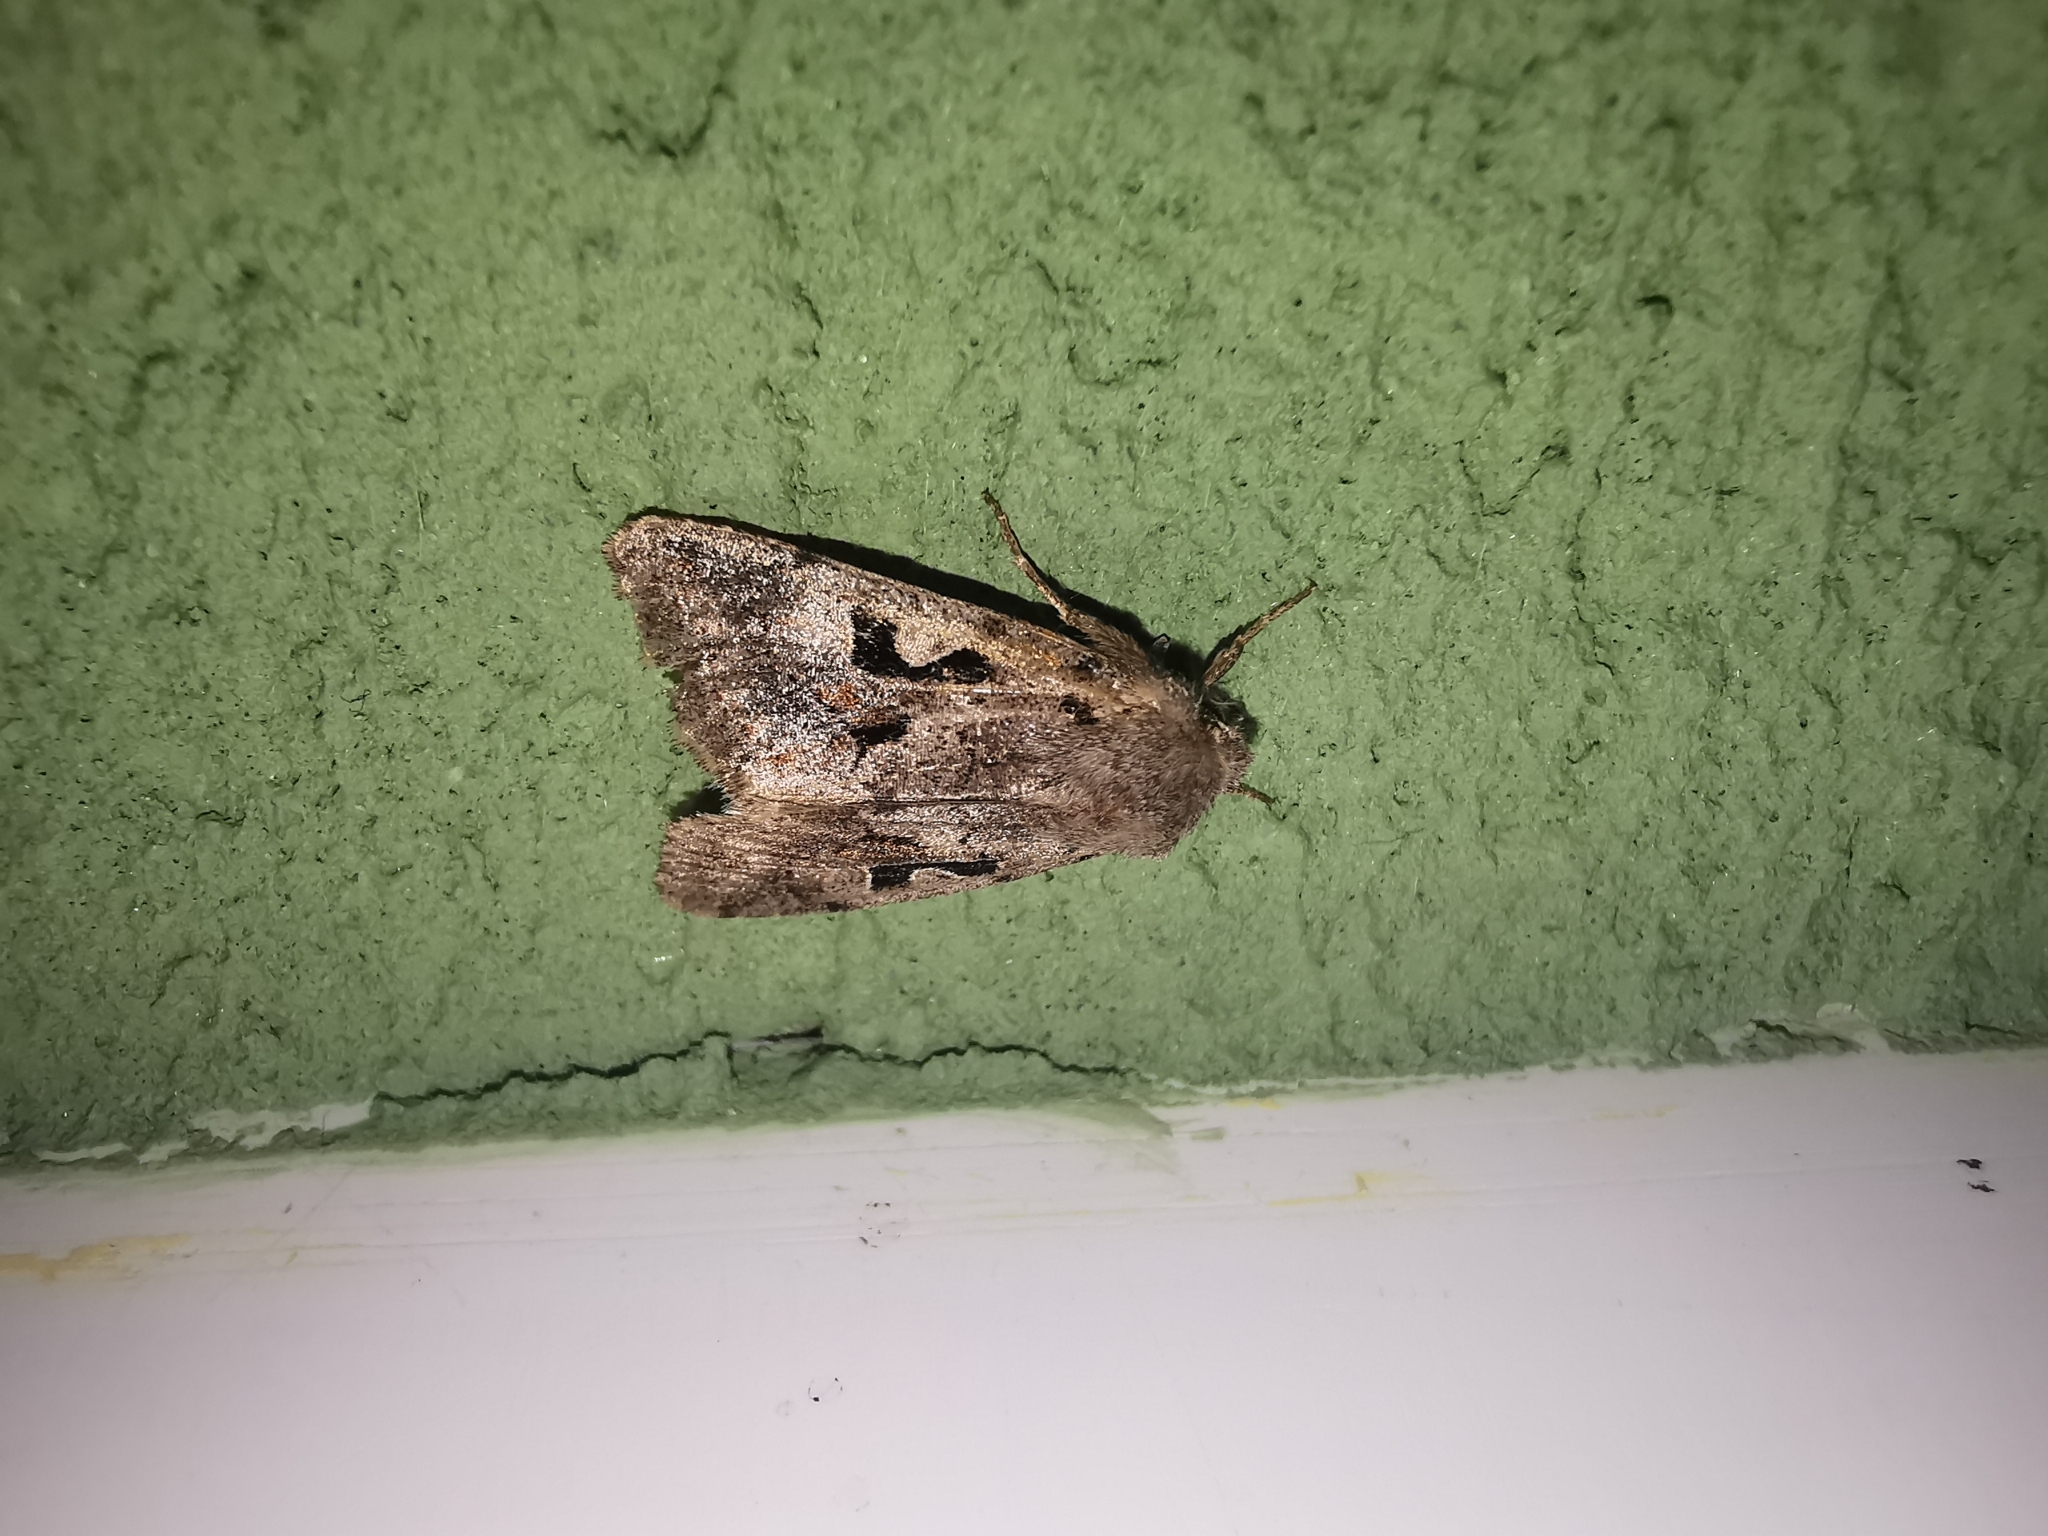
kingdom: Animalia
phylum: Arthropoda
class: Insecta
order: Lepidoptera
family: Noctuidae
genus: Orthosia
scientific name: Orthosia gothica
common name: Hebrew character
